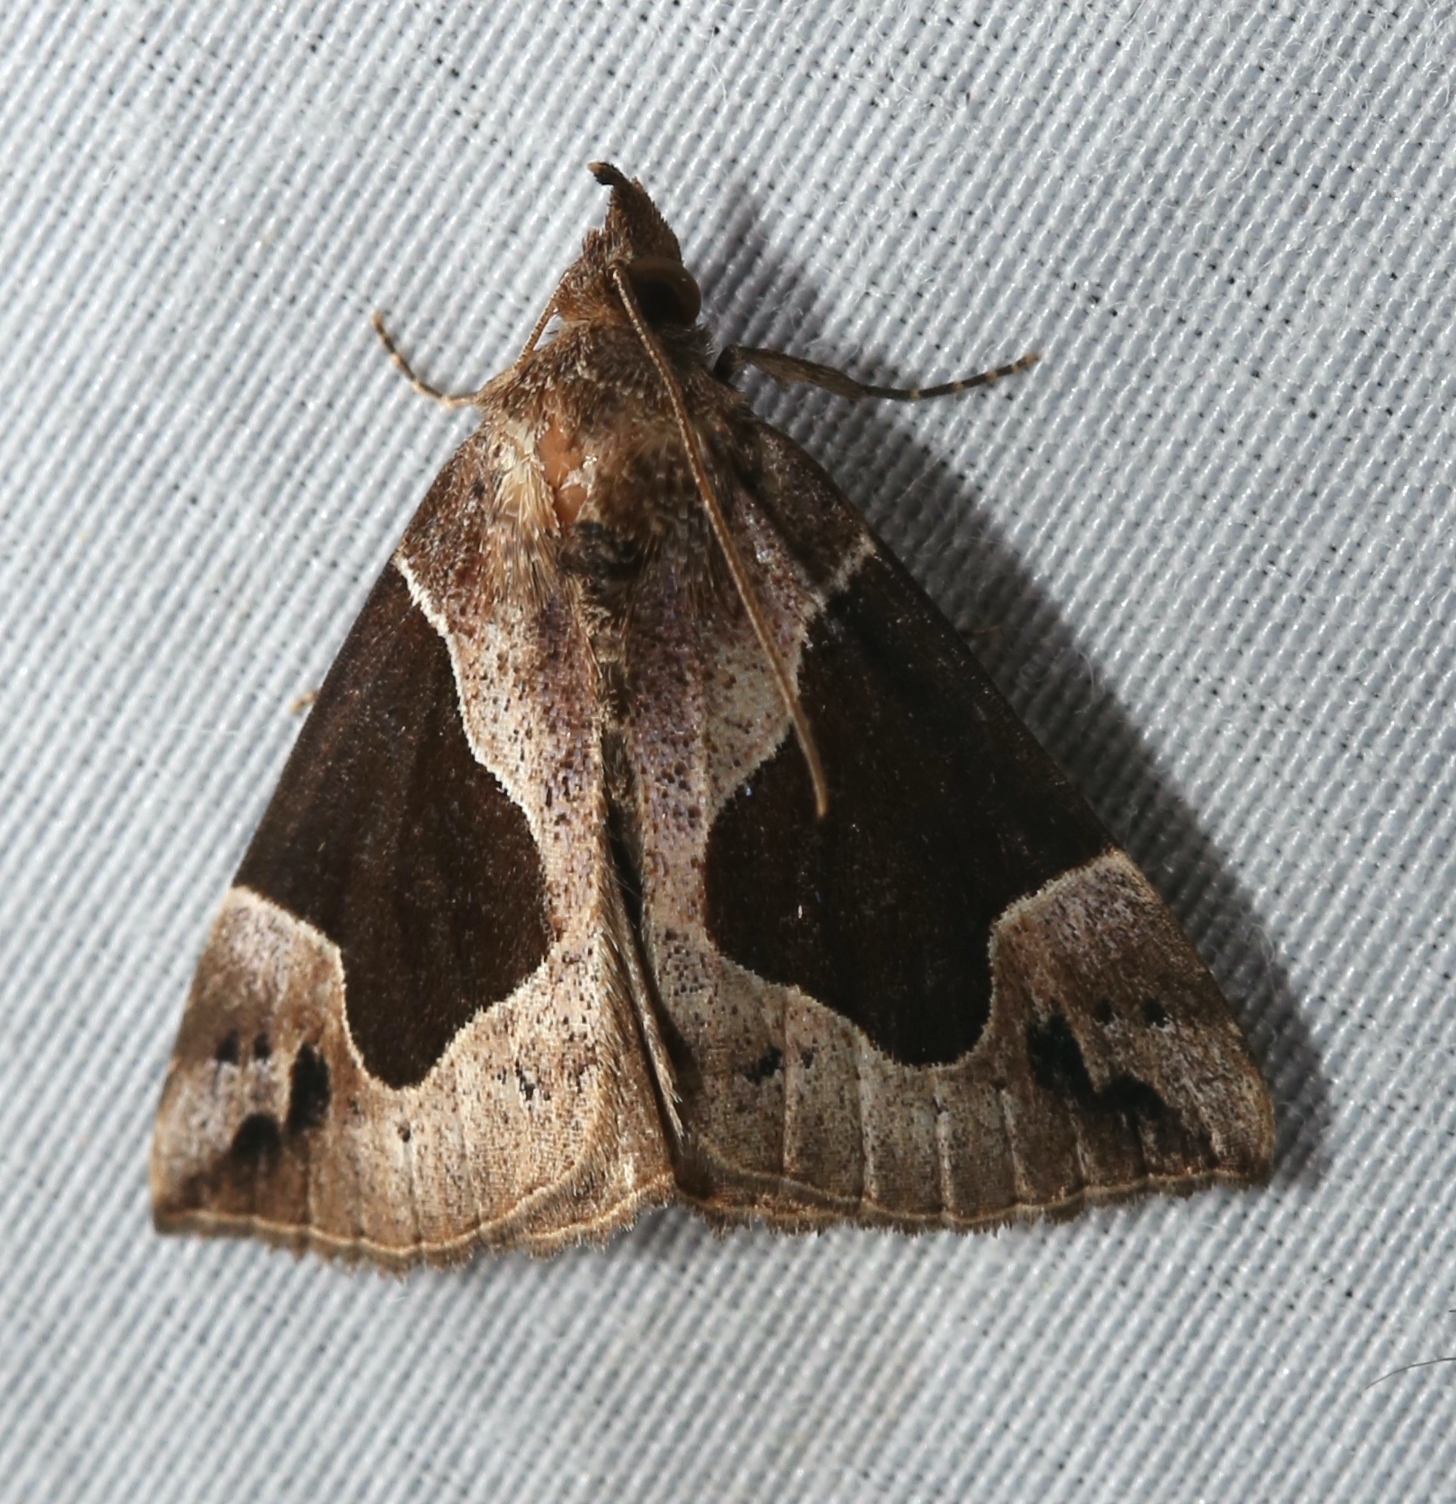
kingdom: Animalia
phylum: Arthropoda
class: Insecta
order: Lepidoptera
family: Erebidae
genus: Hypena
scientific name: Hypena manalis
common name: Flowing-line bomolocha moth
